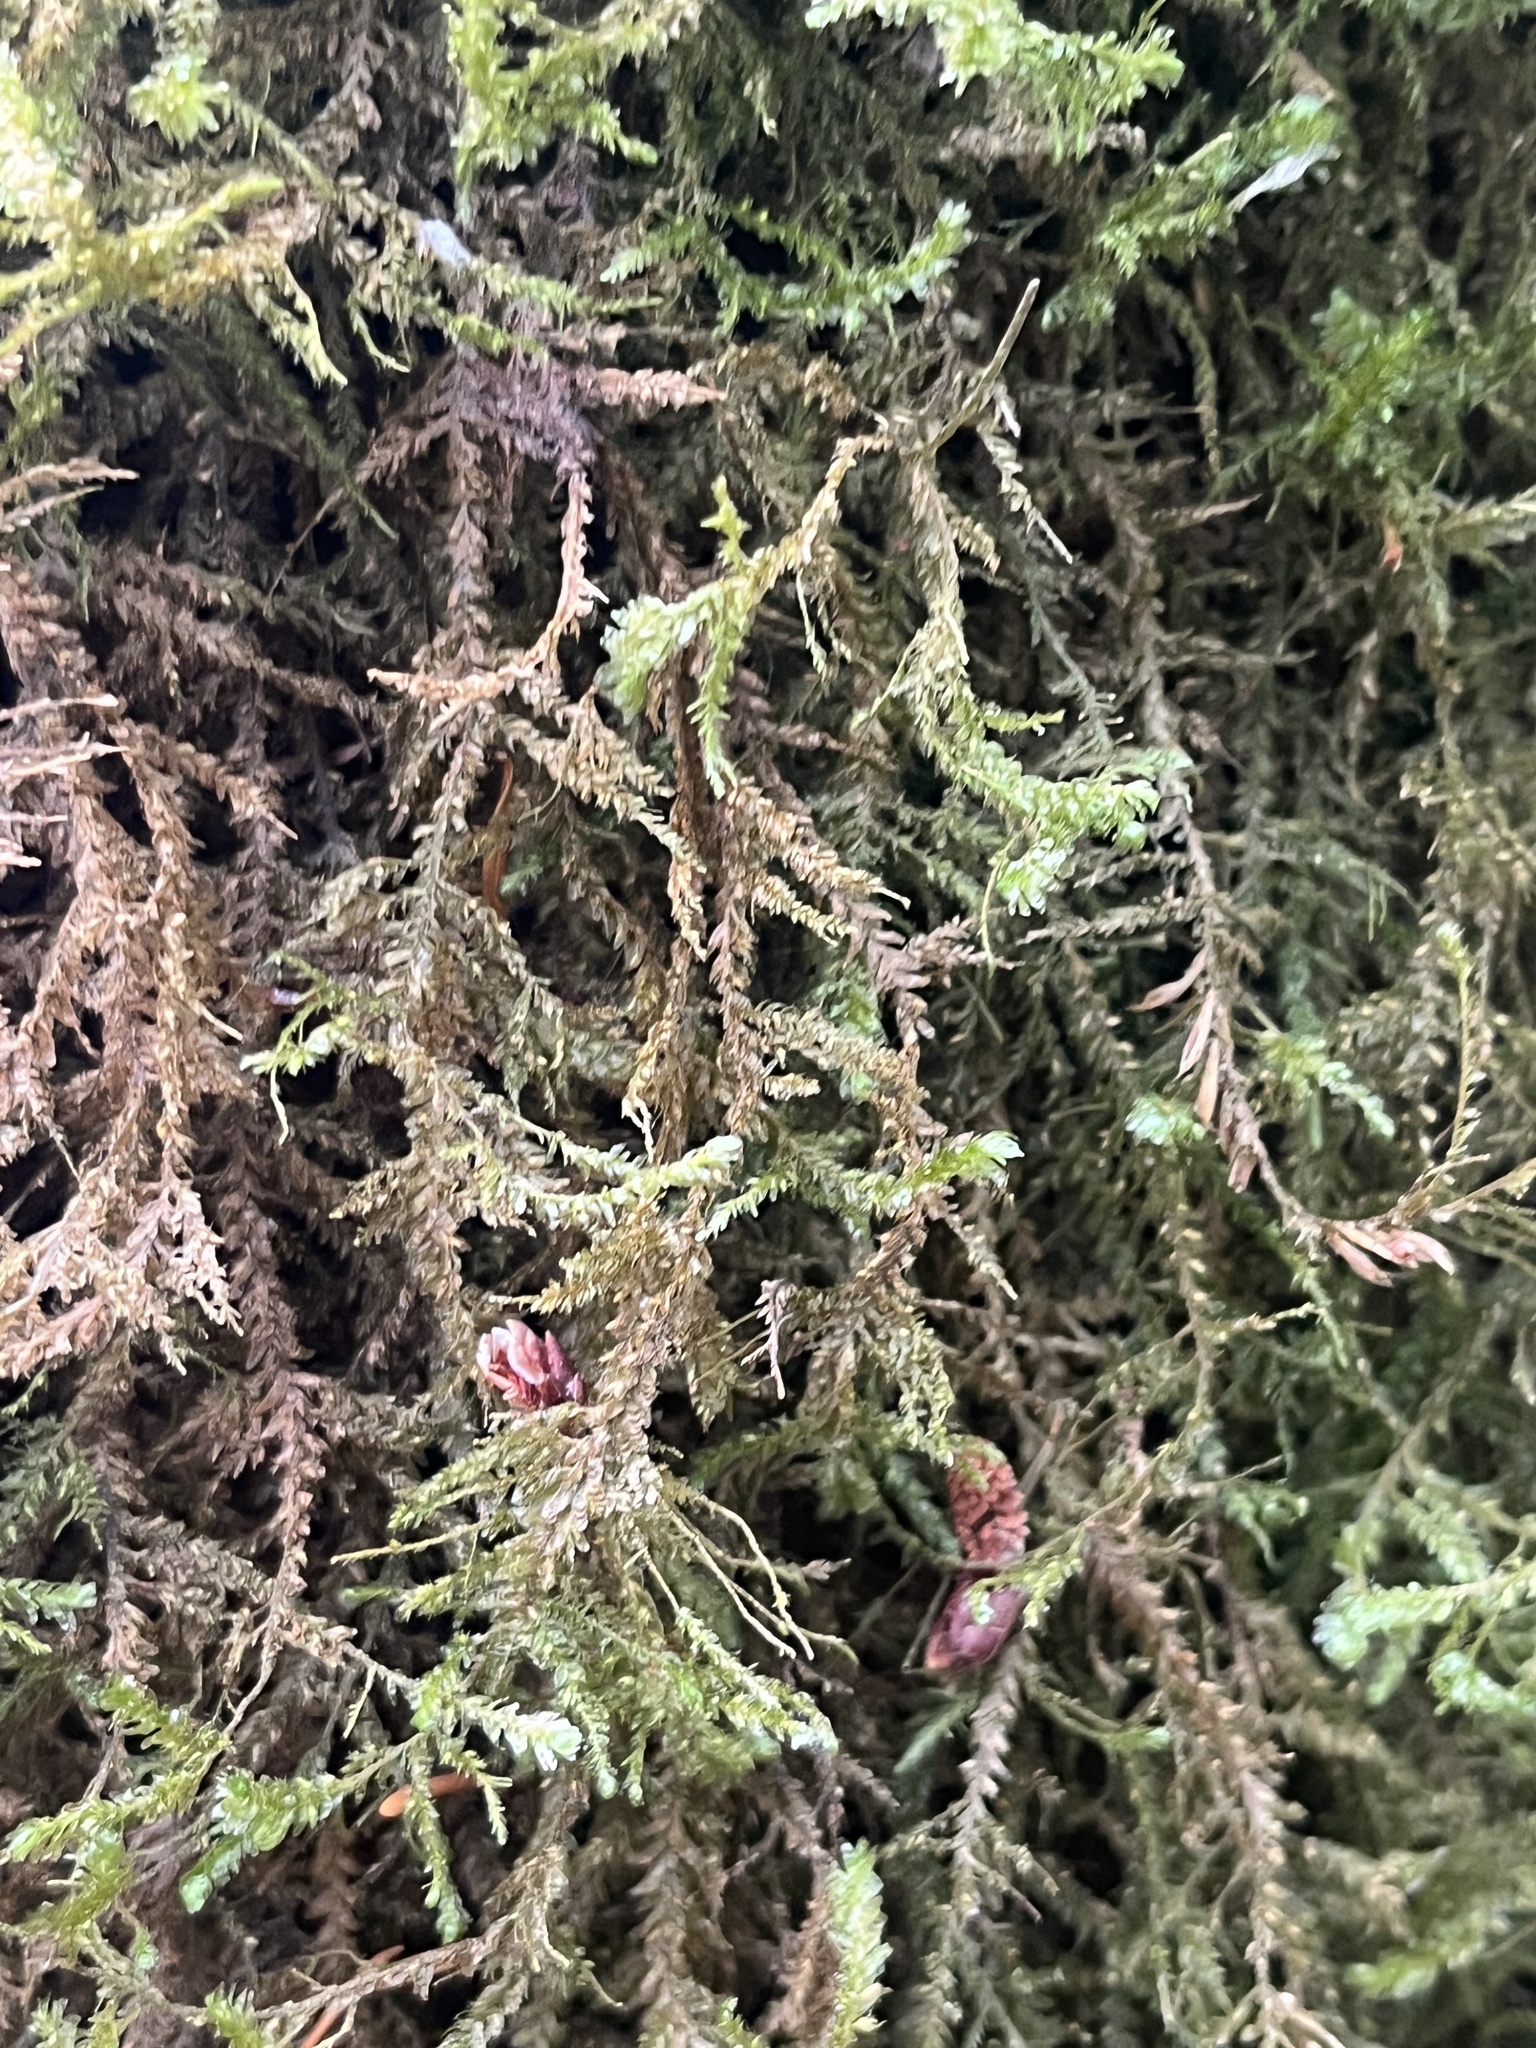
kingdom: Plantae
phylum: Bryophyta
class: Bryopsida
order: Hypnales
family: Neckeraceae
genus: Neckera
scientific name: Neckera douglasii
